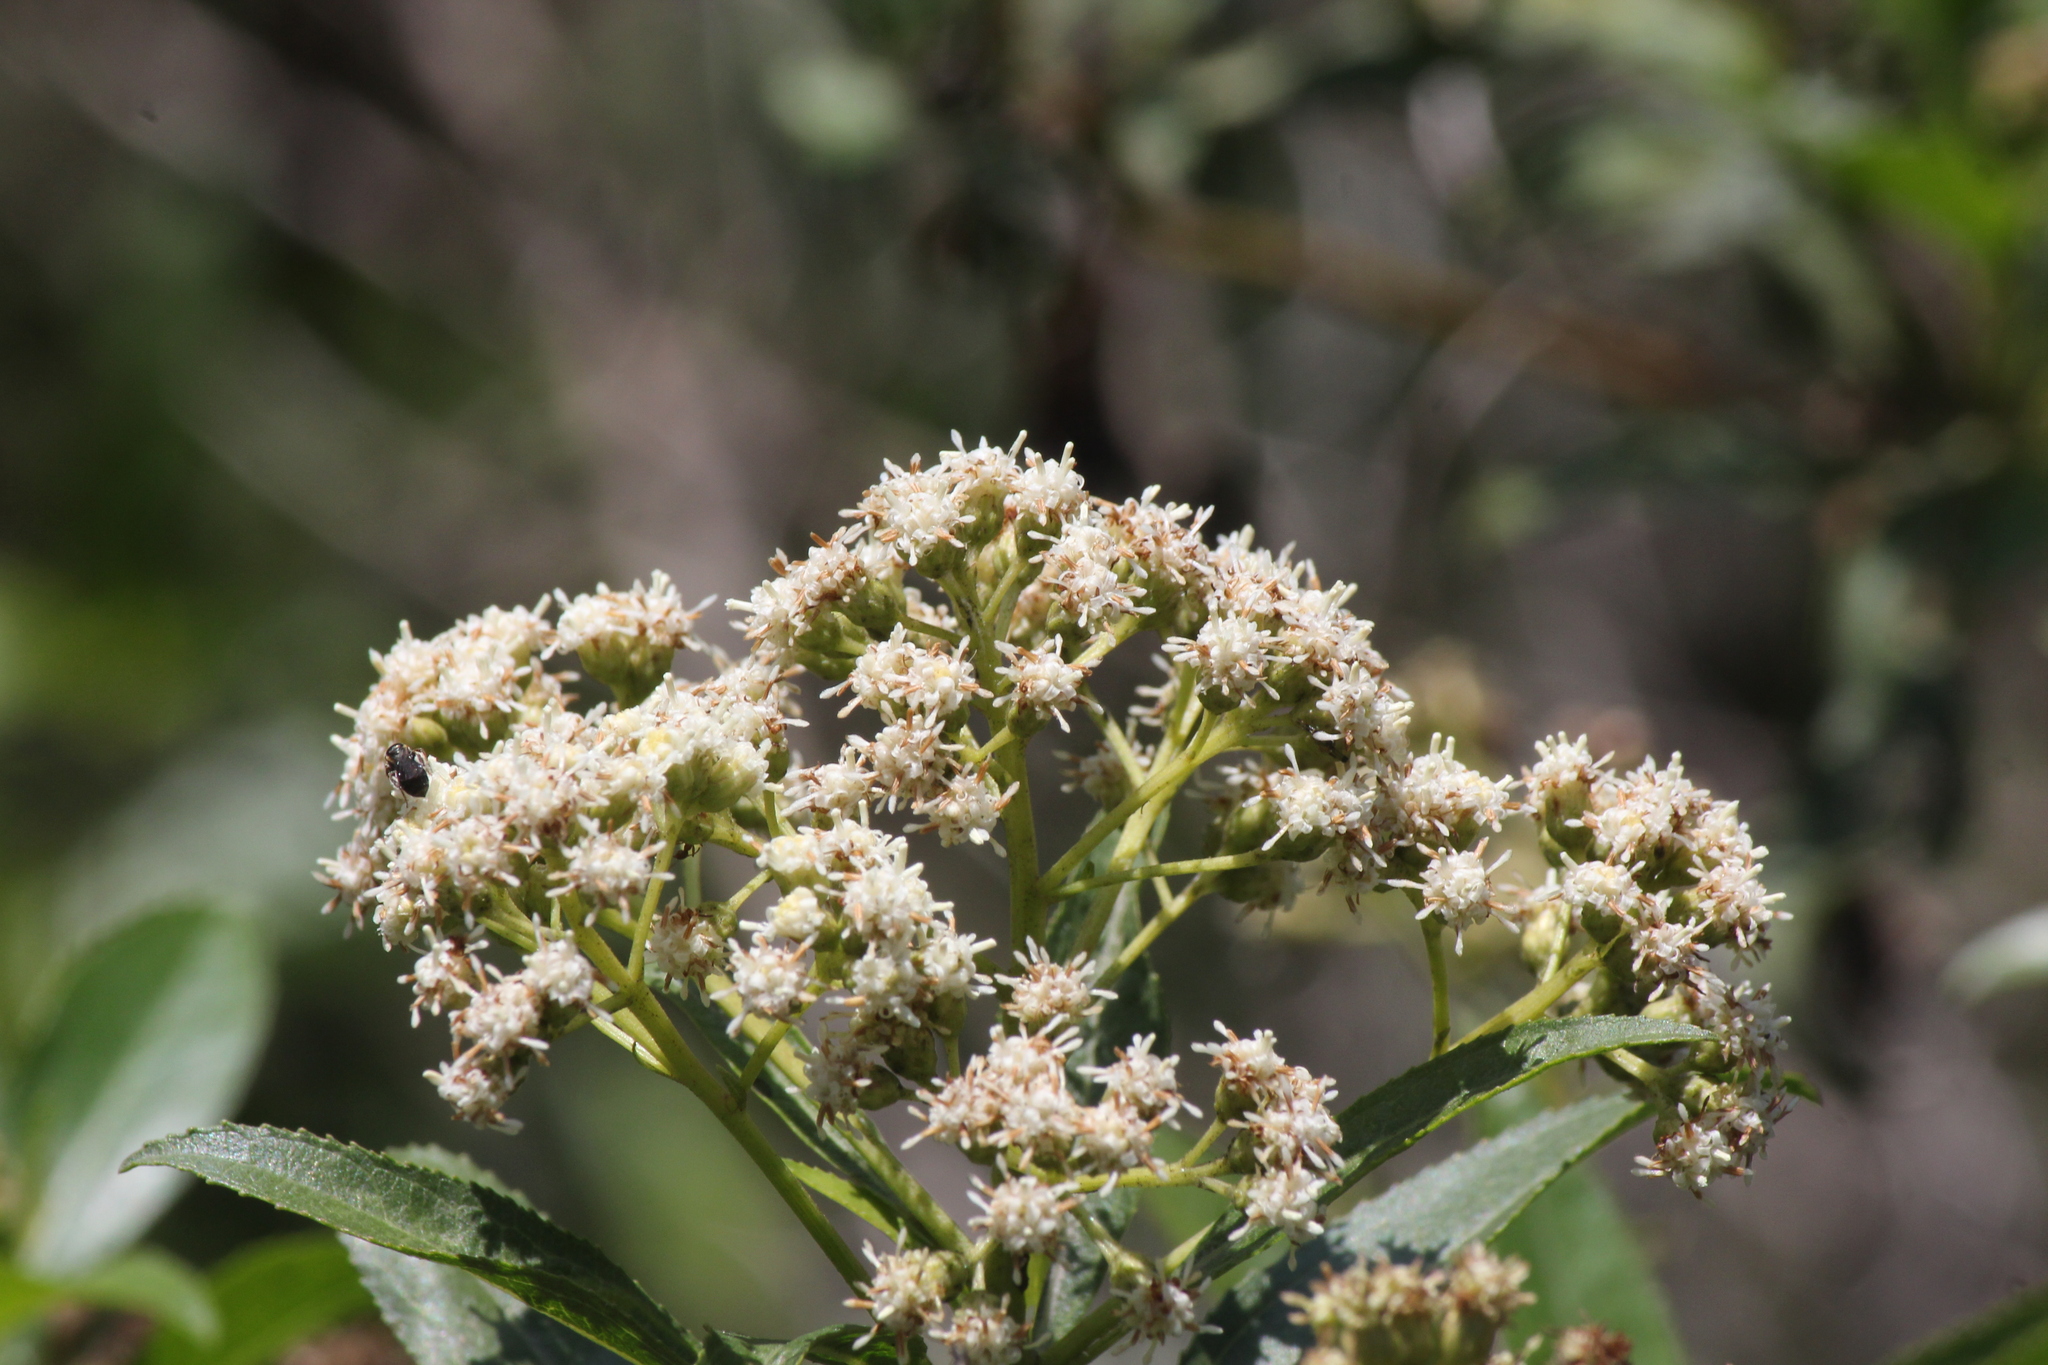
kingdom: Plantae
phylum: Tracheophyta
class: Magnoliopsida
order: Asterales
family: Asteraceae
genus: Baccharis
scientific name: Baccharis latifolia
